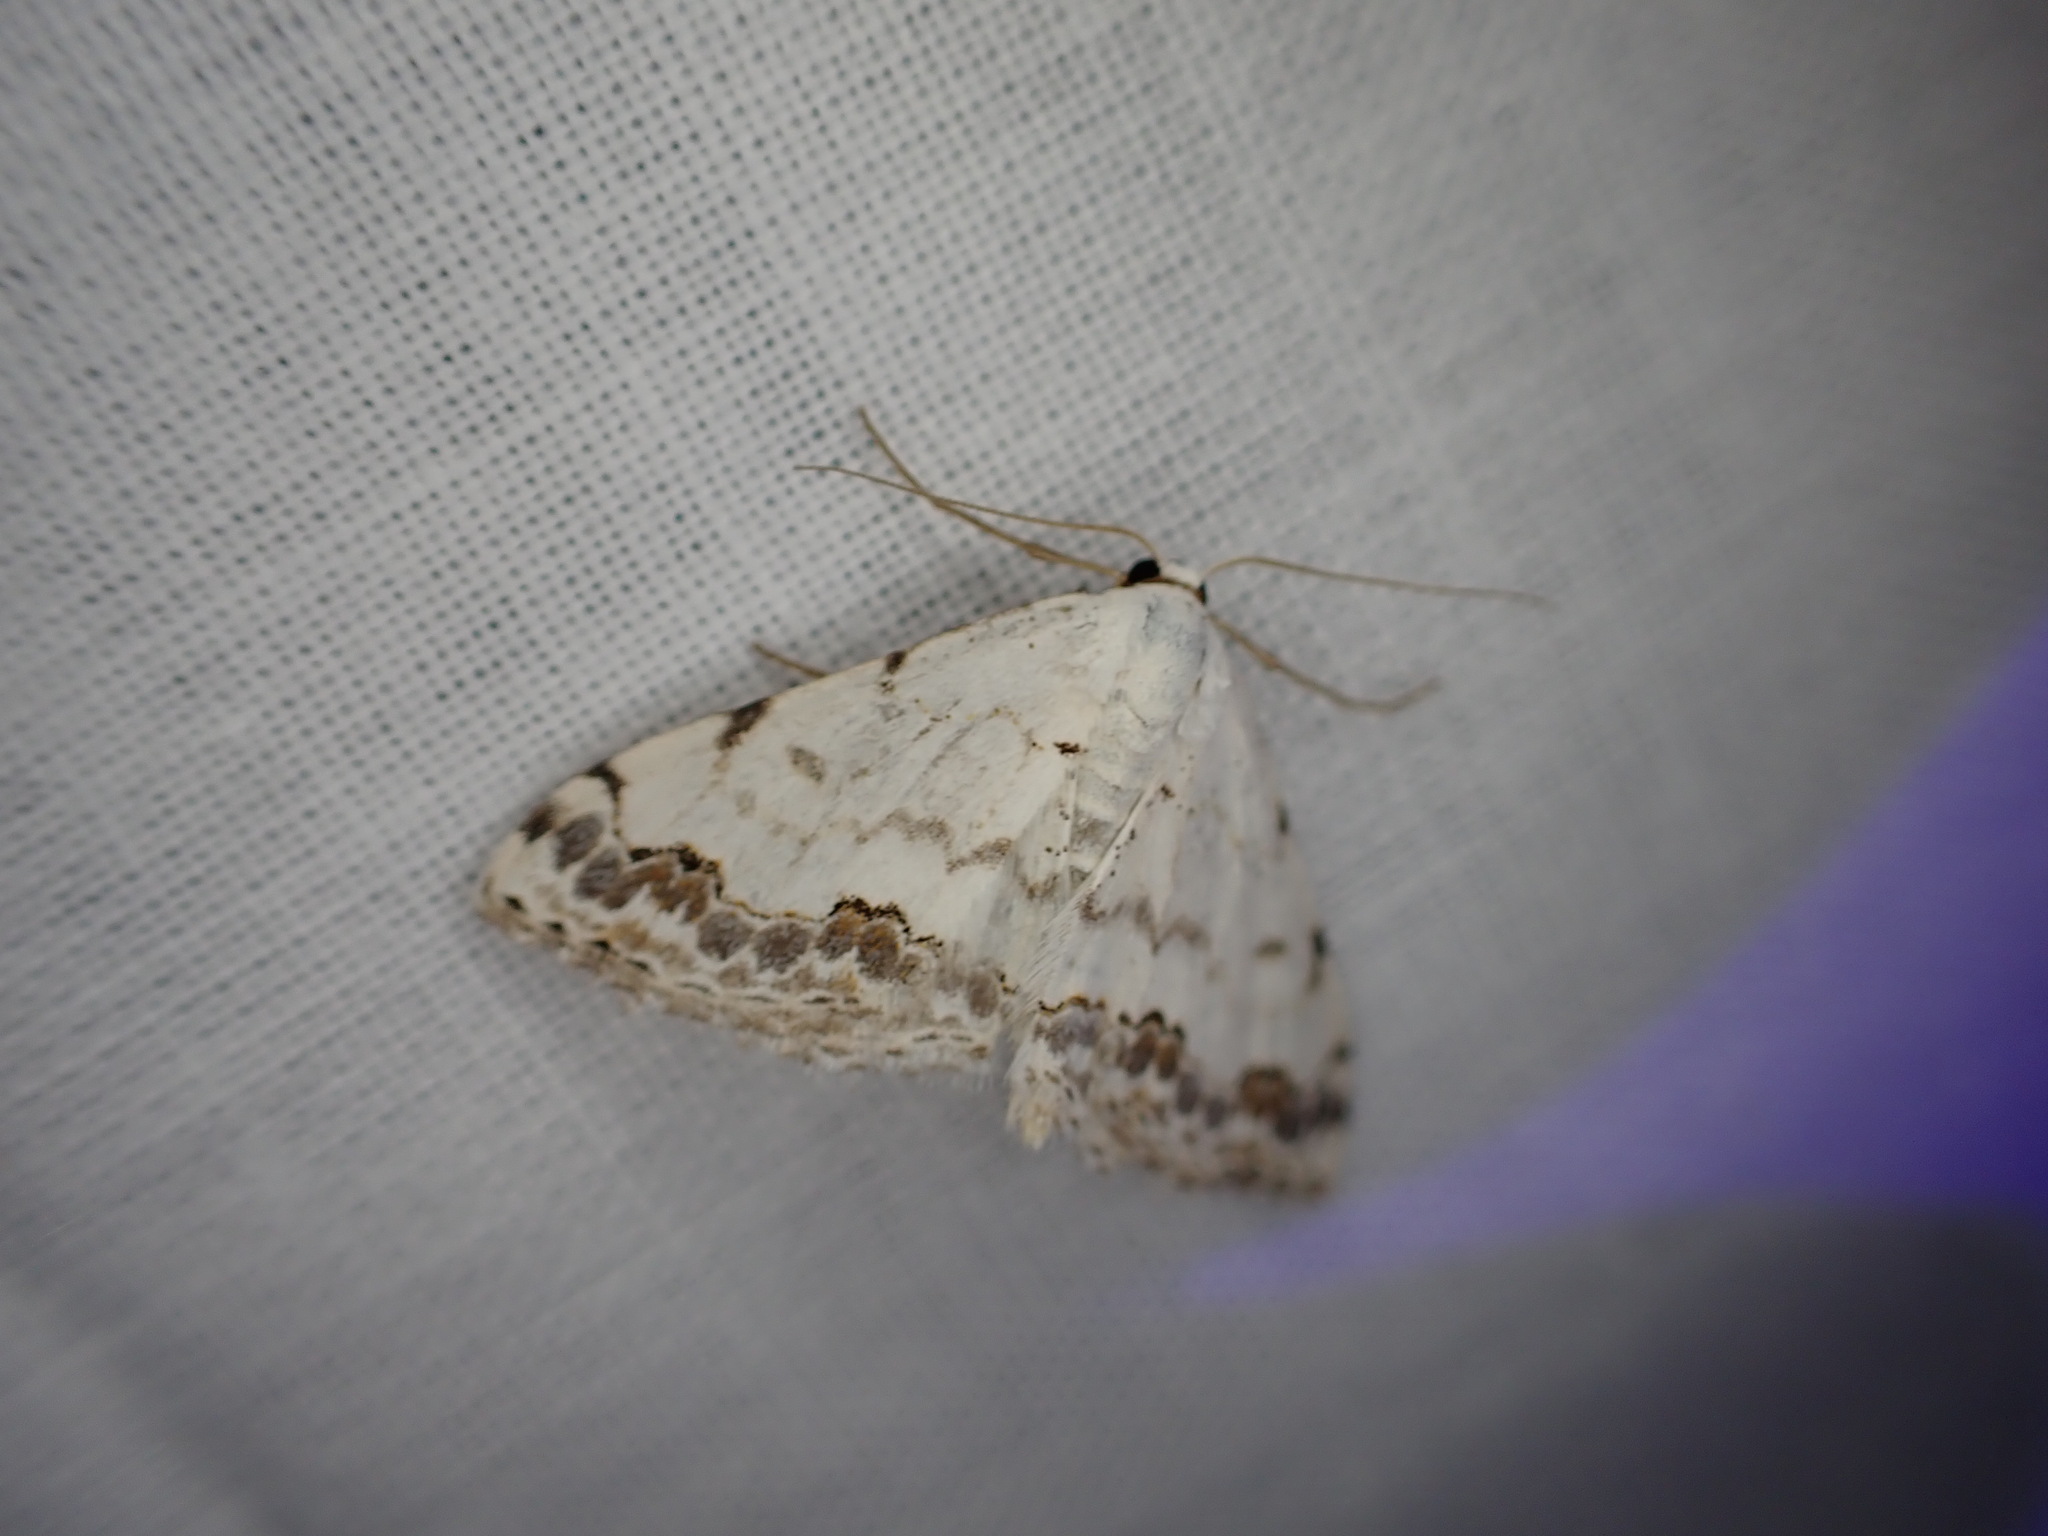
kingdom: Animalia
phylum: Arthropoda
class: Insecta
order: Lepidoptera
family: Geometridae
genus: Scopula
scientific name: Scopula decorata
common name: Middle lace border
